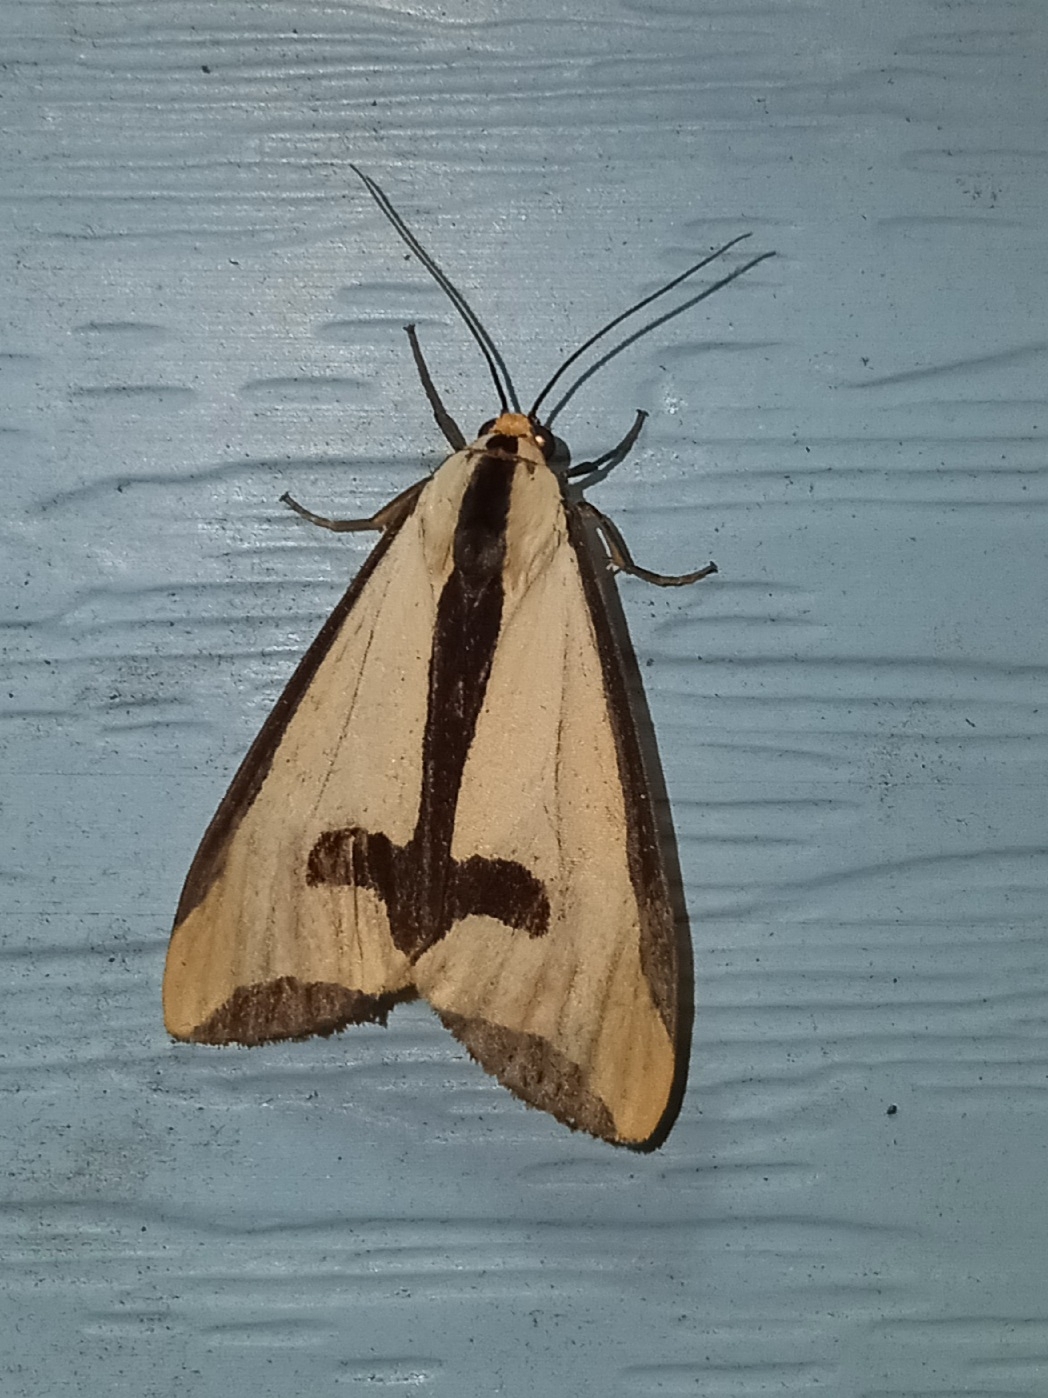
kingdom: Animalia
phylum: Arthropoda
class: Insecta
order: Lepidoptera
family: Erebidae
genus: Haploa
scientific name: Haploa clymene
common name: Clymene moth
